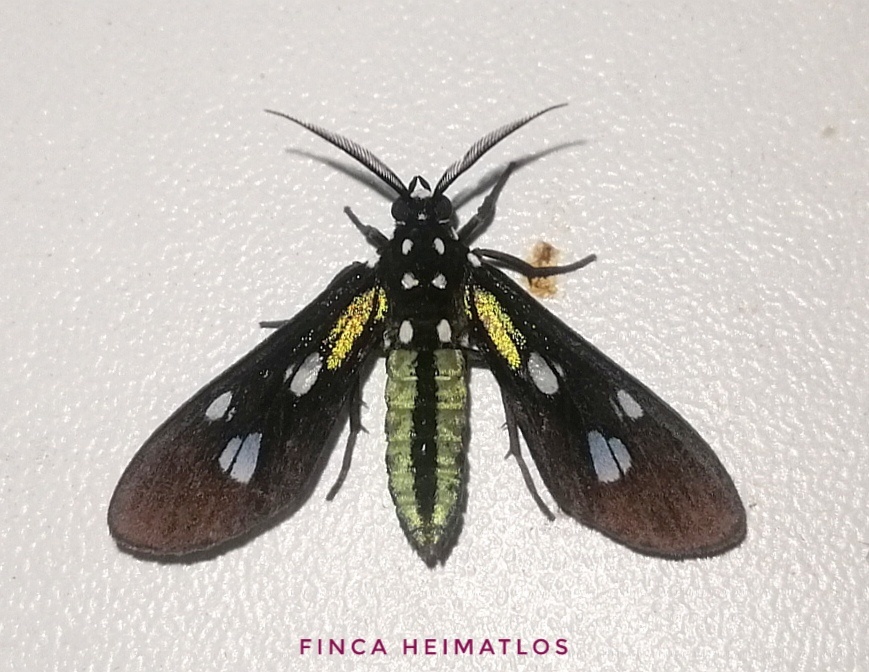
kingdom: Animalia
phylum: Arthropoda
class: Insecta
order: Lepidoptera
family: Erebidae
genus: Leucopleura
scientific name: Leucopleura viridis
